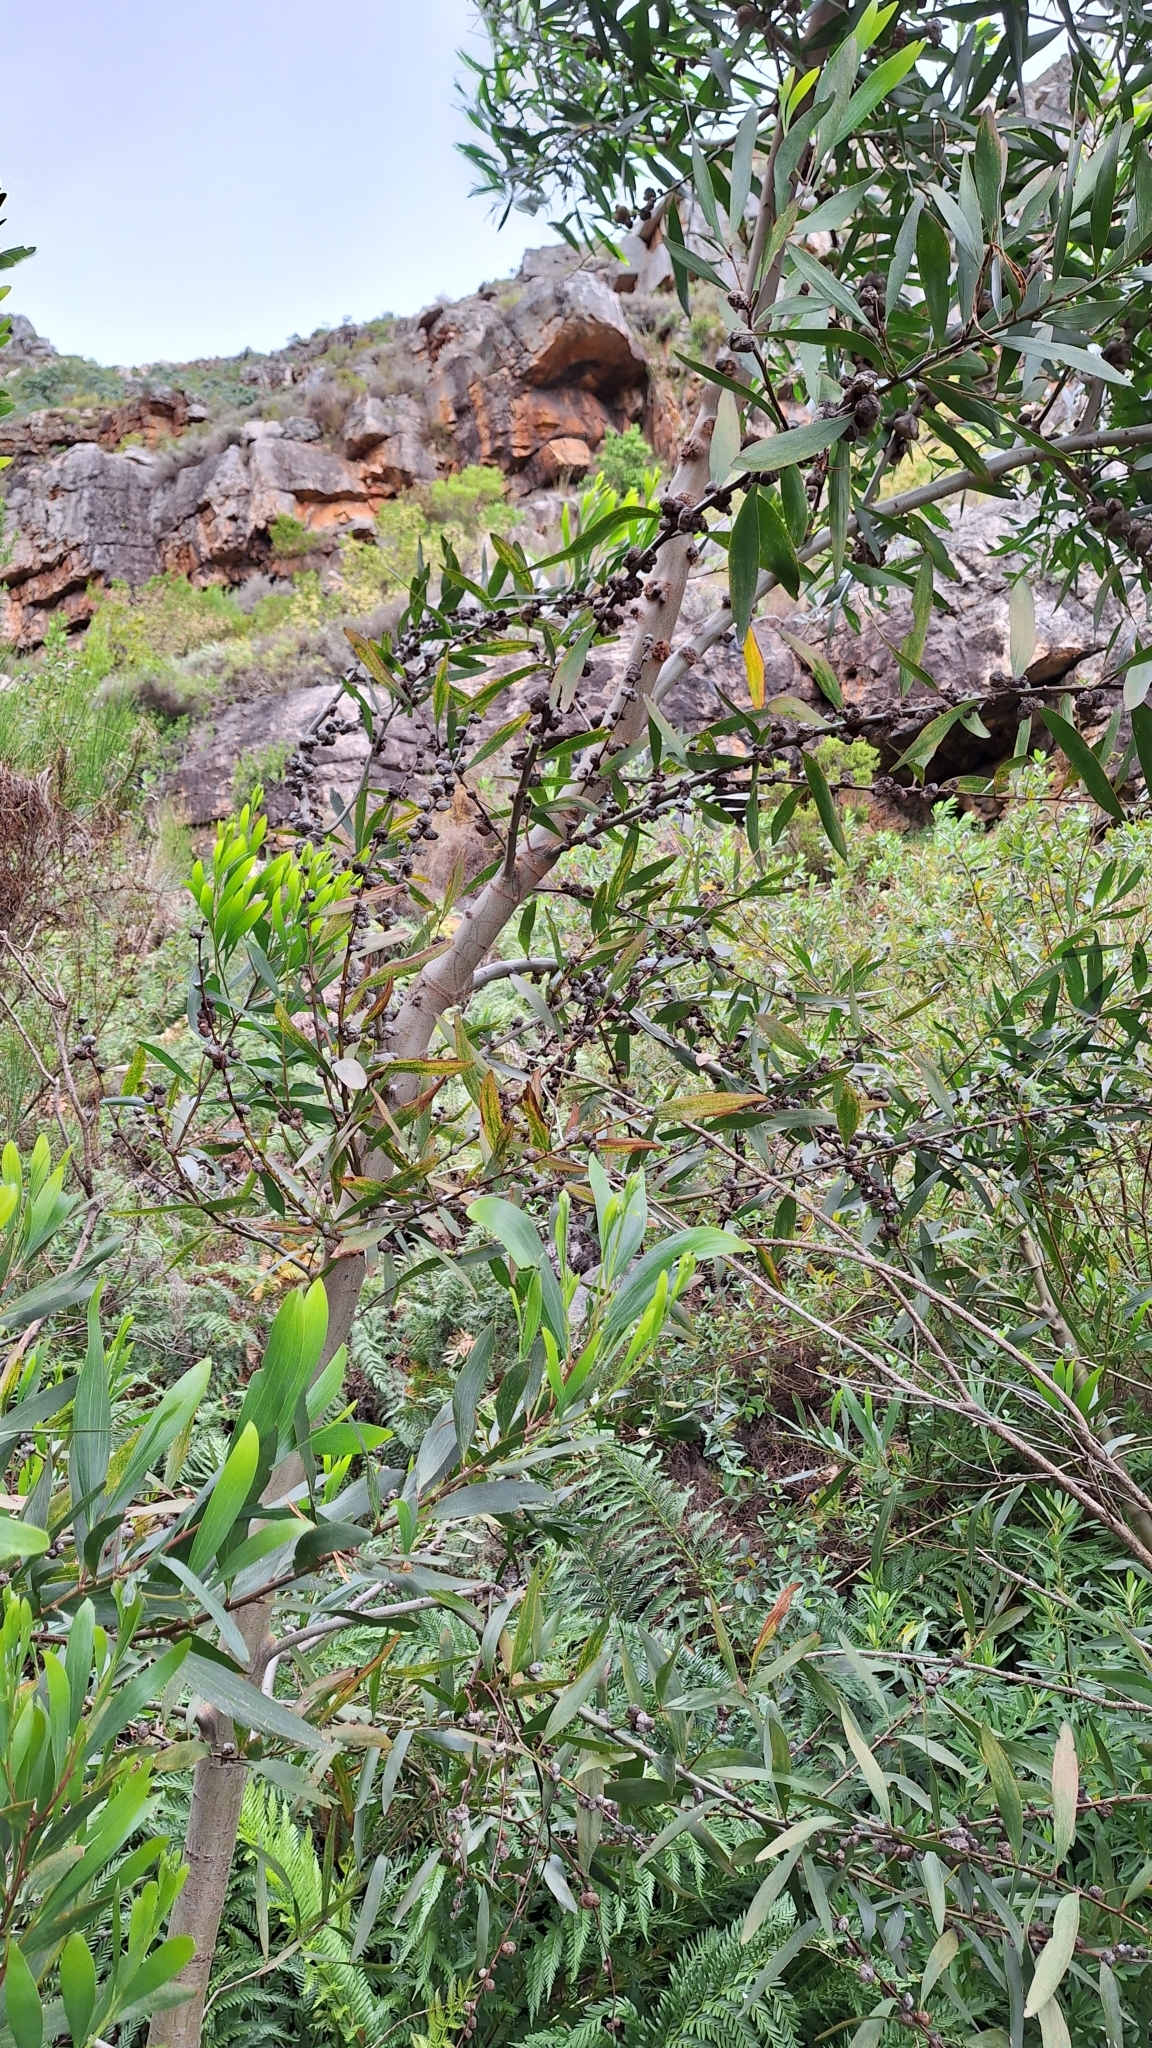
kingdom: Plantae
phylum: Tracheophyta
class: Magnoliopsida
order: Fabales
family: Fabaceae
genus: Acacia
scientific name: Acacia longifolia
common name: Sydney golden wattle
